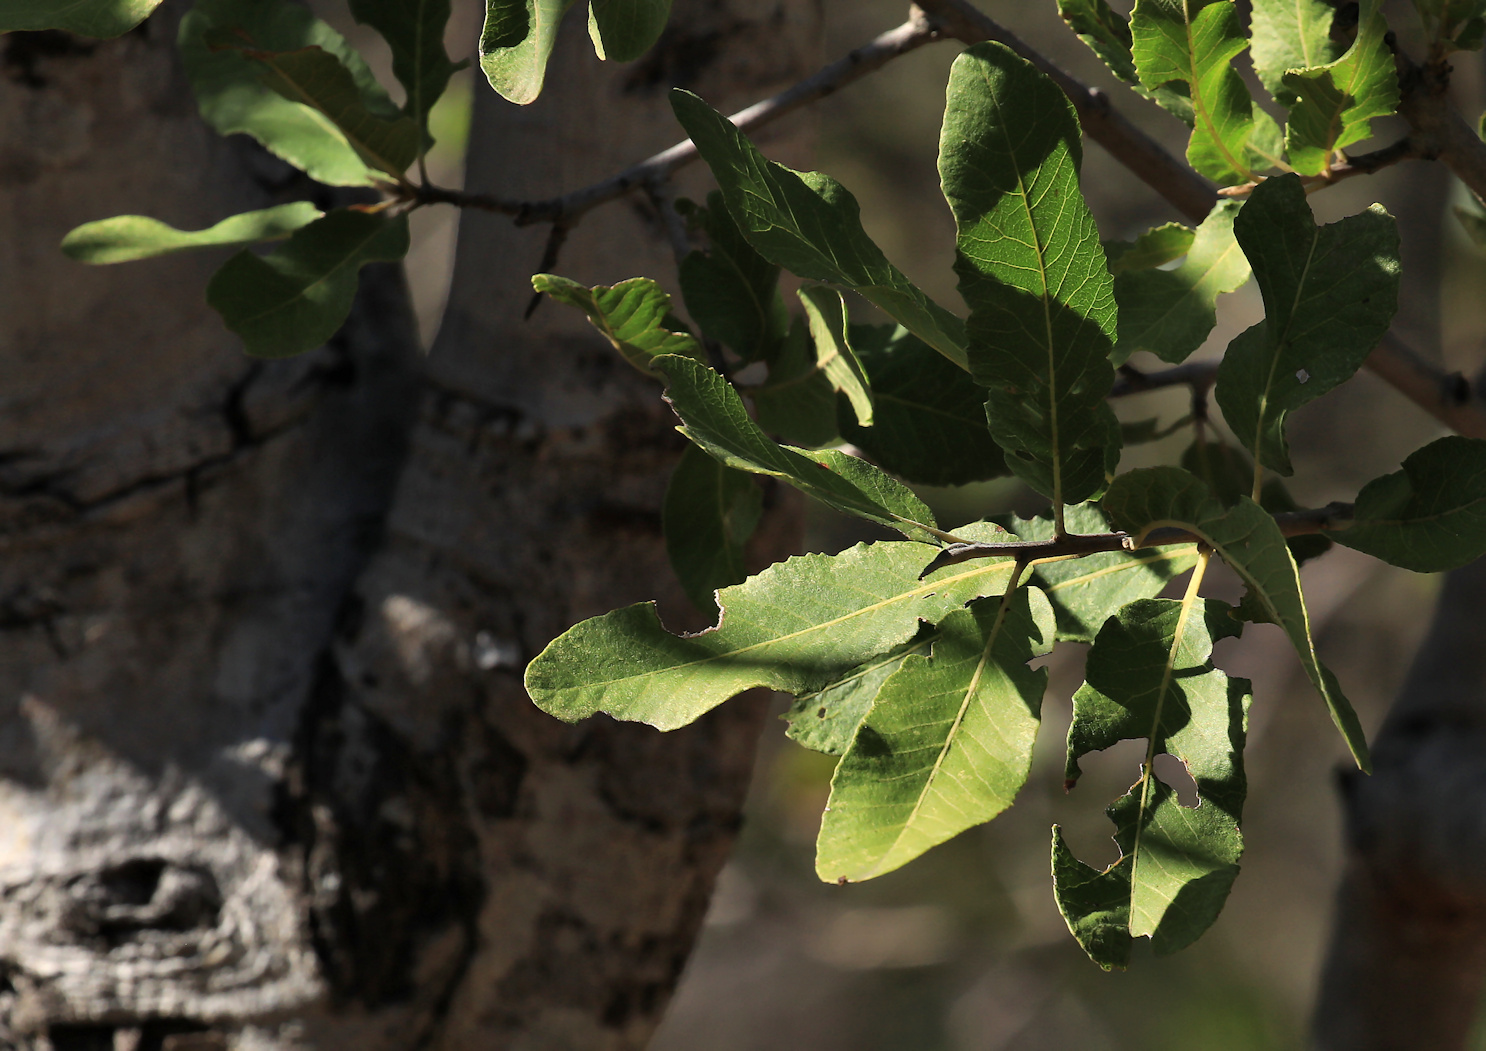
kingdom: Plantae
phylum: Tracheophyta
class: Magnoliopsida
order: Sapindales
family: Sapindaceae
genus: Pappea
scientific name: Pappea capensis
